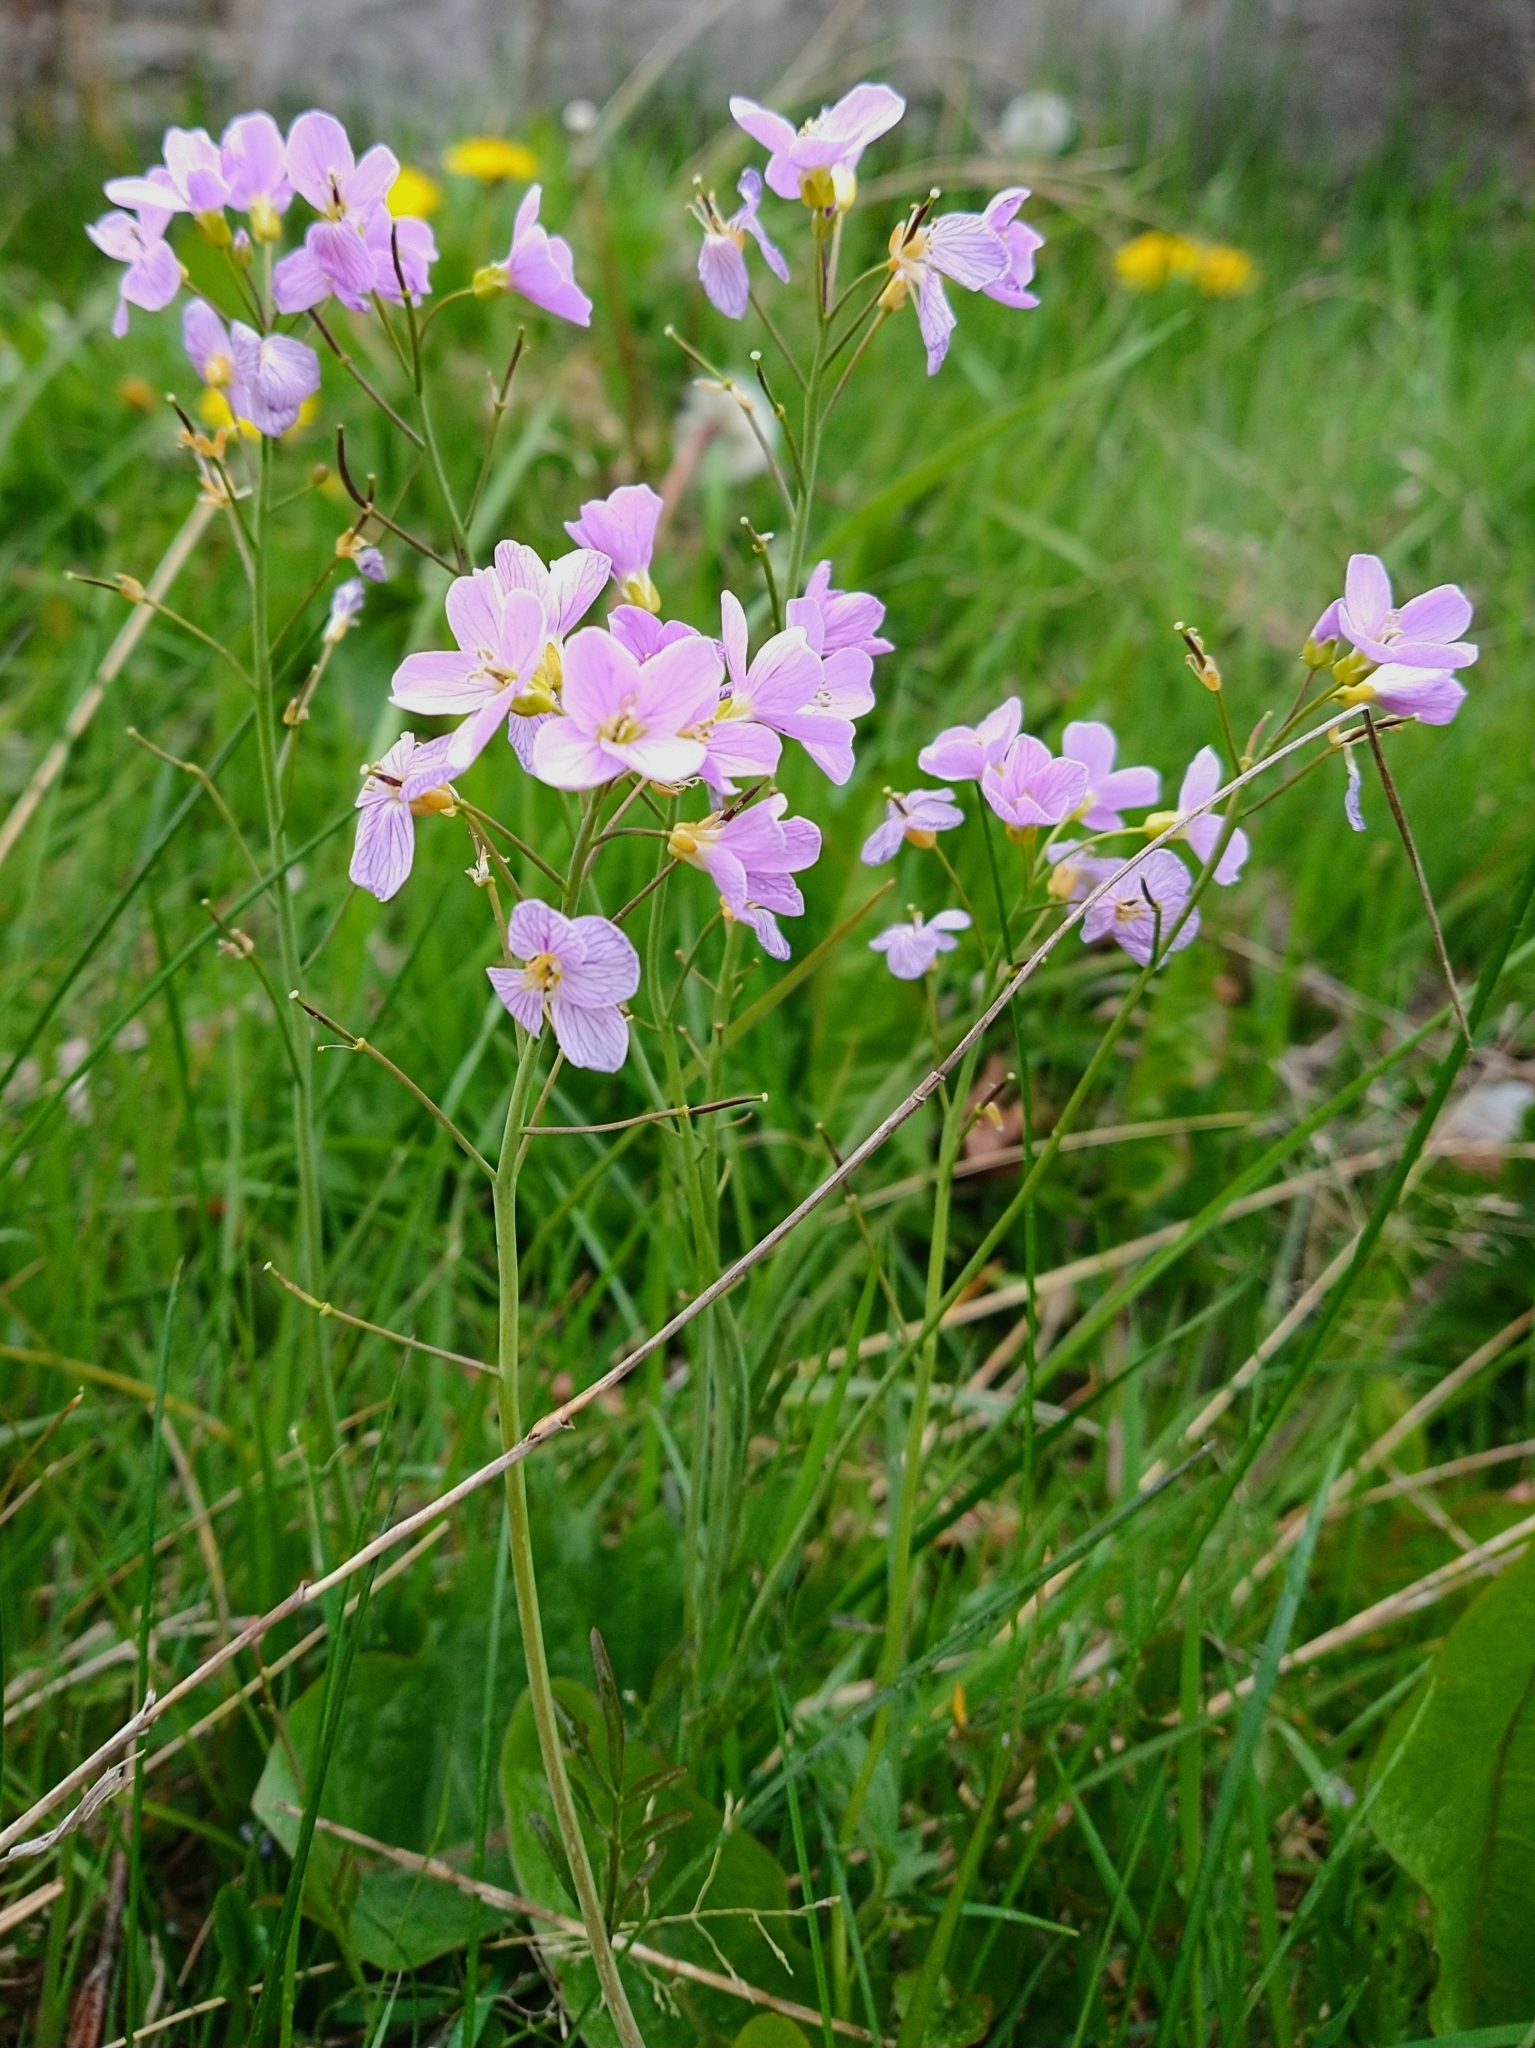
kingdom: Plantae
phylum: Tracheophyta
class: Magnoliopsida
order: Brassicales
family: Brassicaceae
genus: Cardamine
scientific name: Cardamine pratensis
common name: Cuckoo flower
